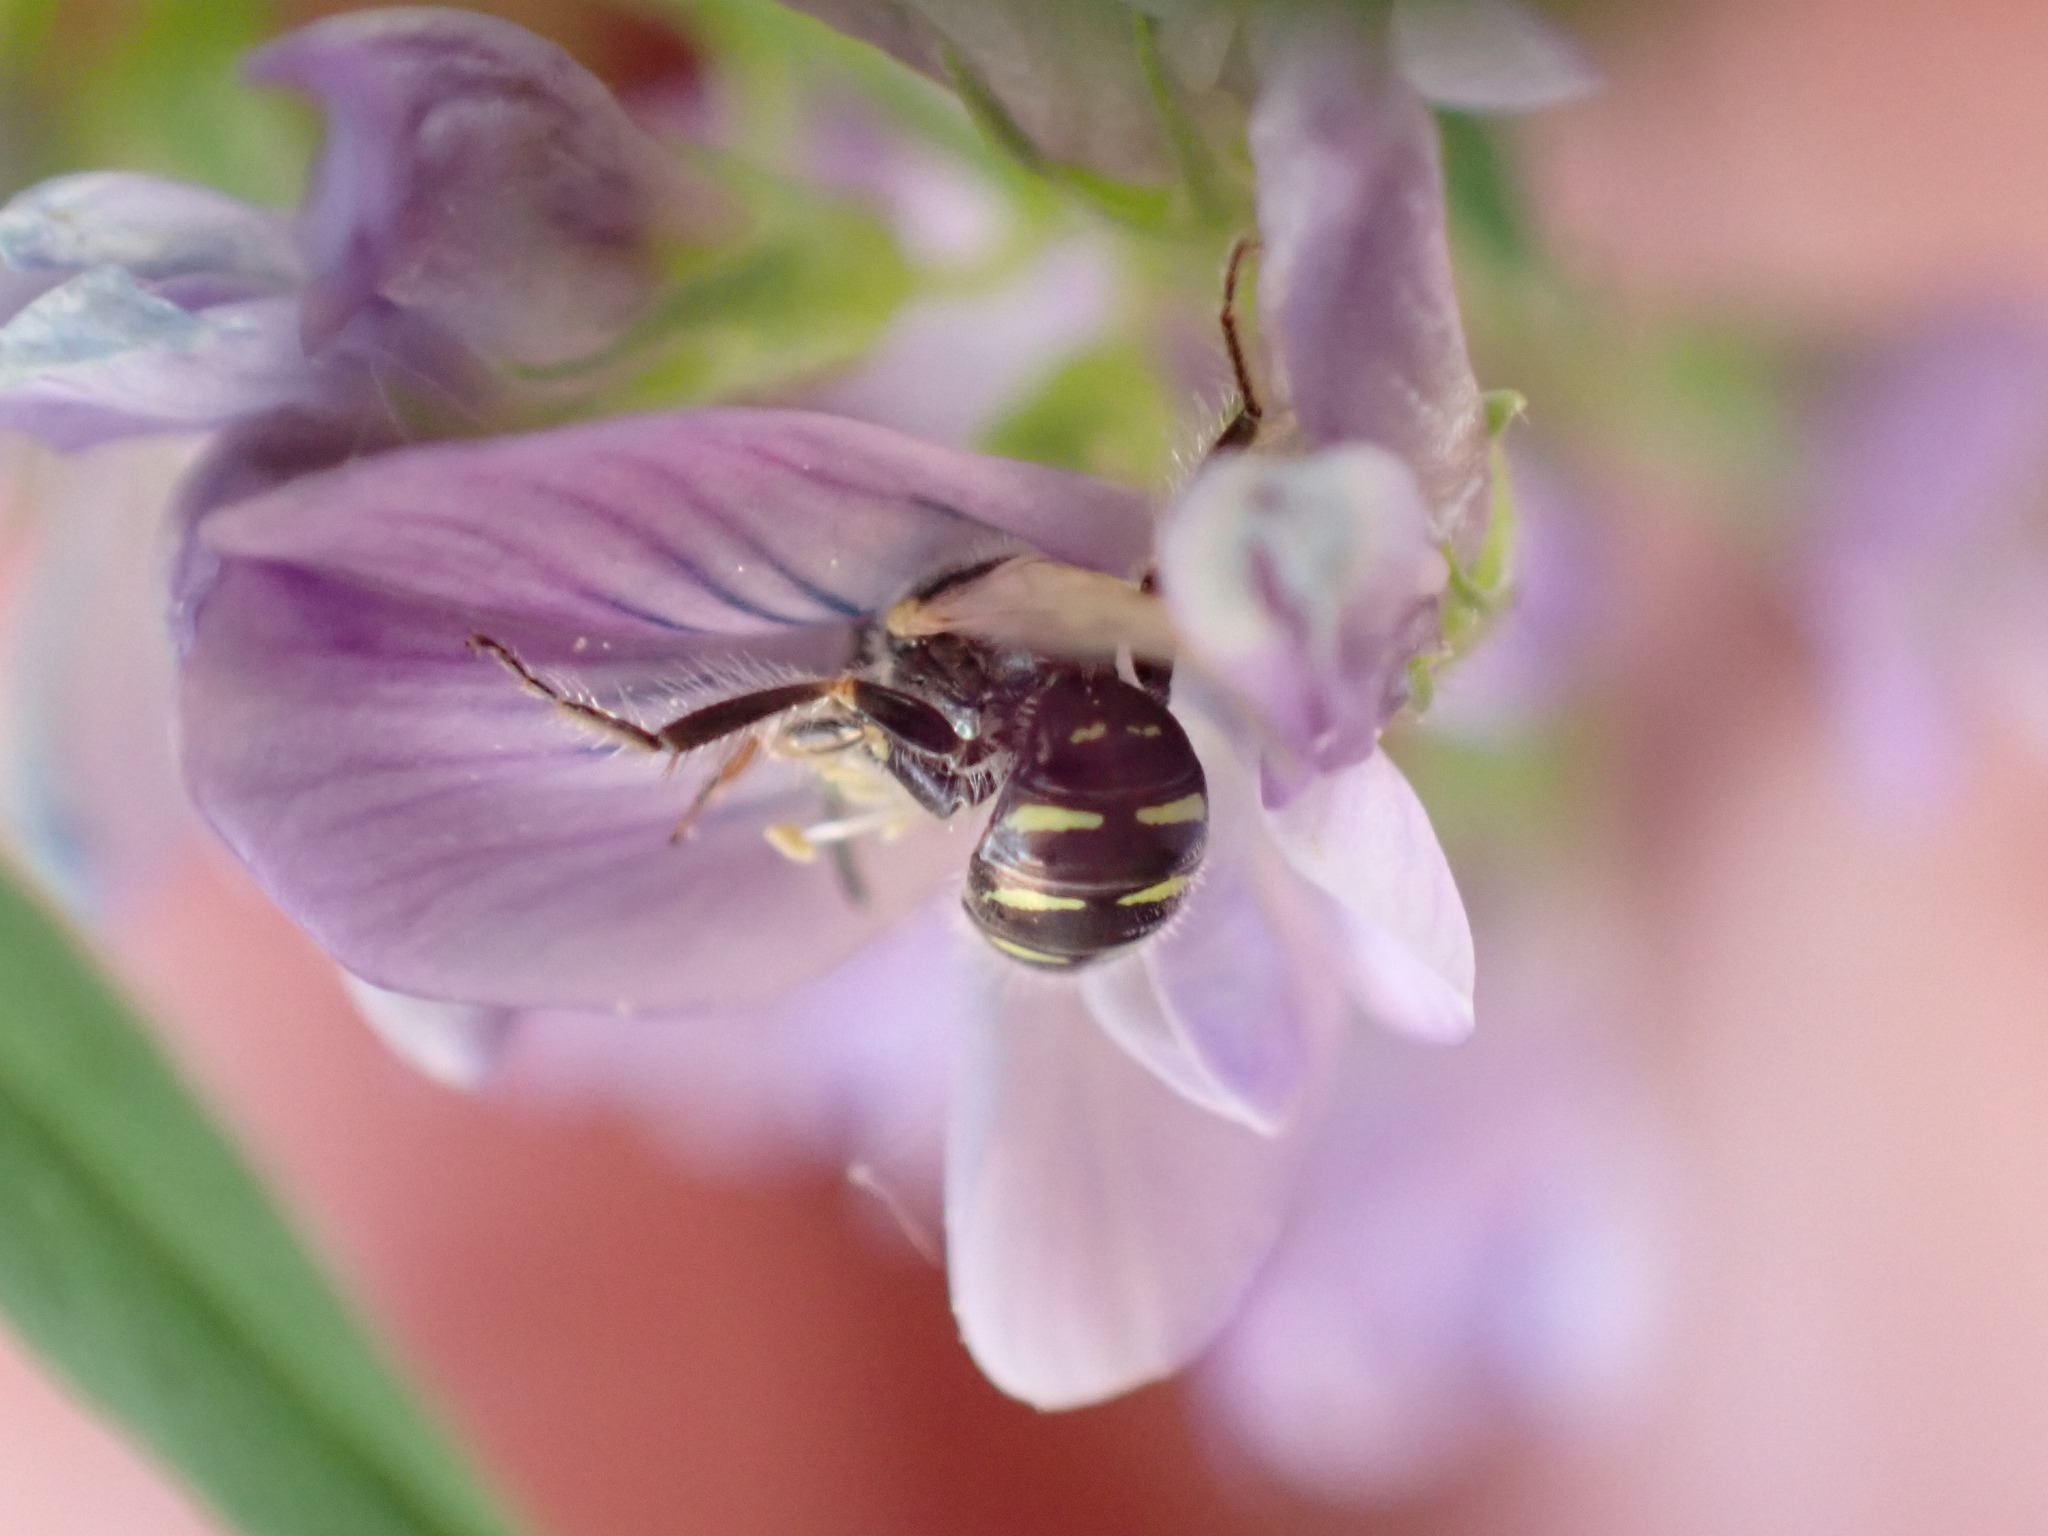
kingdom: Animalia
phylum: Arthropoda
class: Insecta
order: Hymenoptera
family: Andrenidae
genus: Perdita
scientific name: Perdita maculigera
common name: Sandbar willow fairy bee
